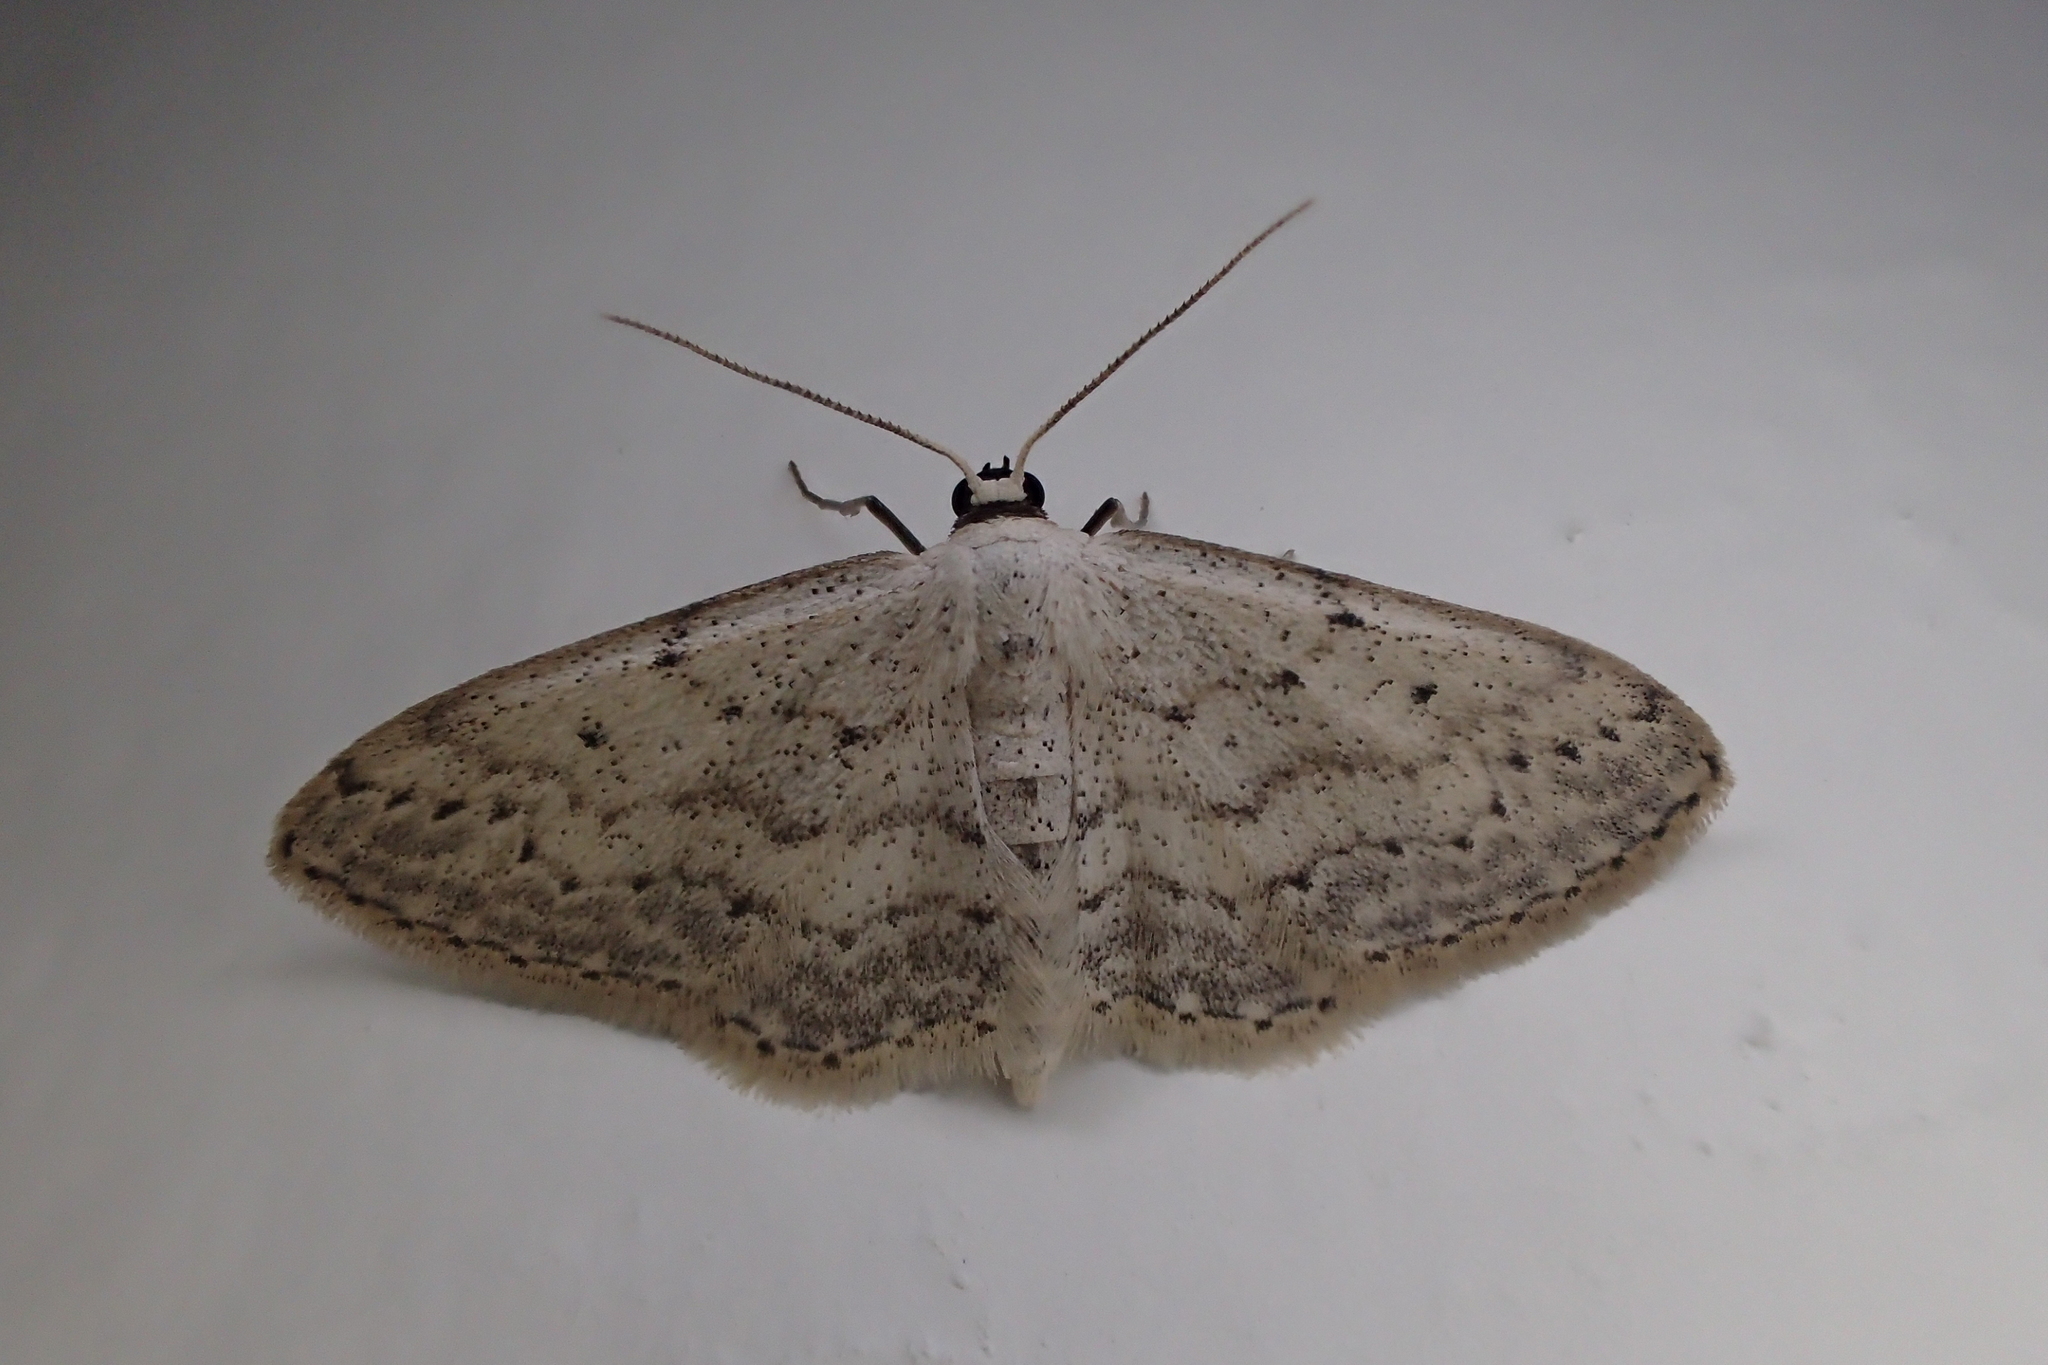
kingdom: Animalia
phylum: Arthropoda
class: Insecta
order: Lepidoptera
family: Geometridae
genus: Idaea
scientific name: Idaea seriata
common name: Small dusty wave
